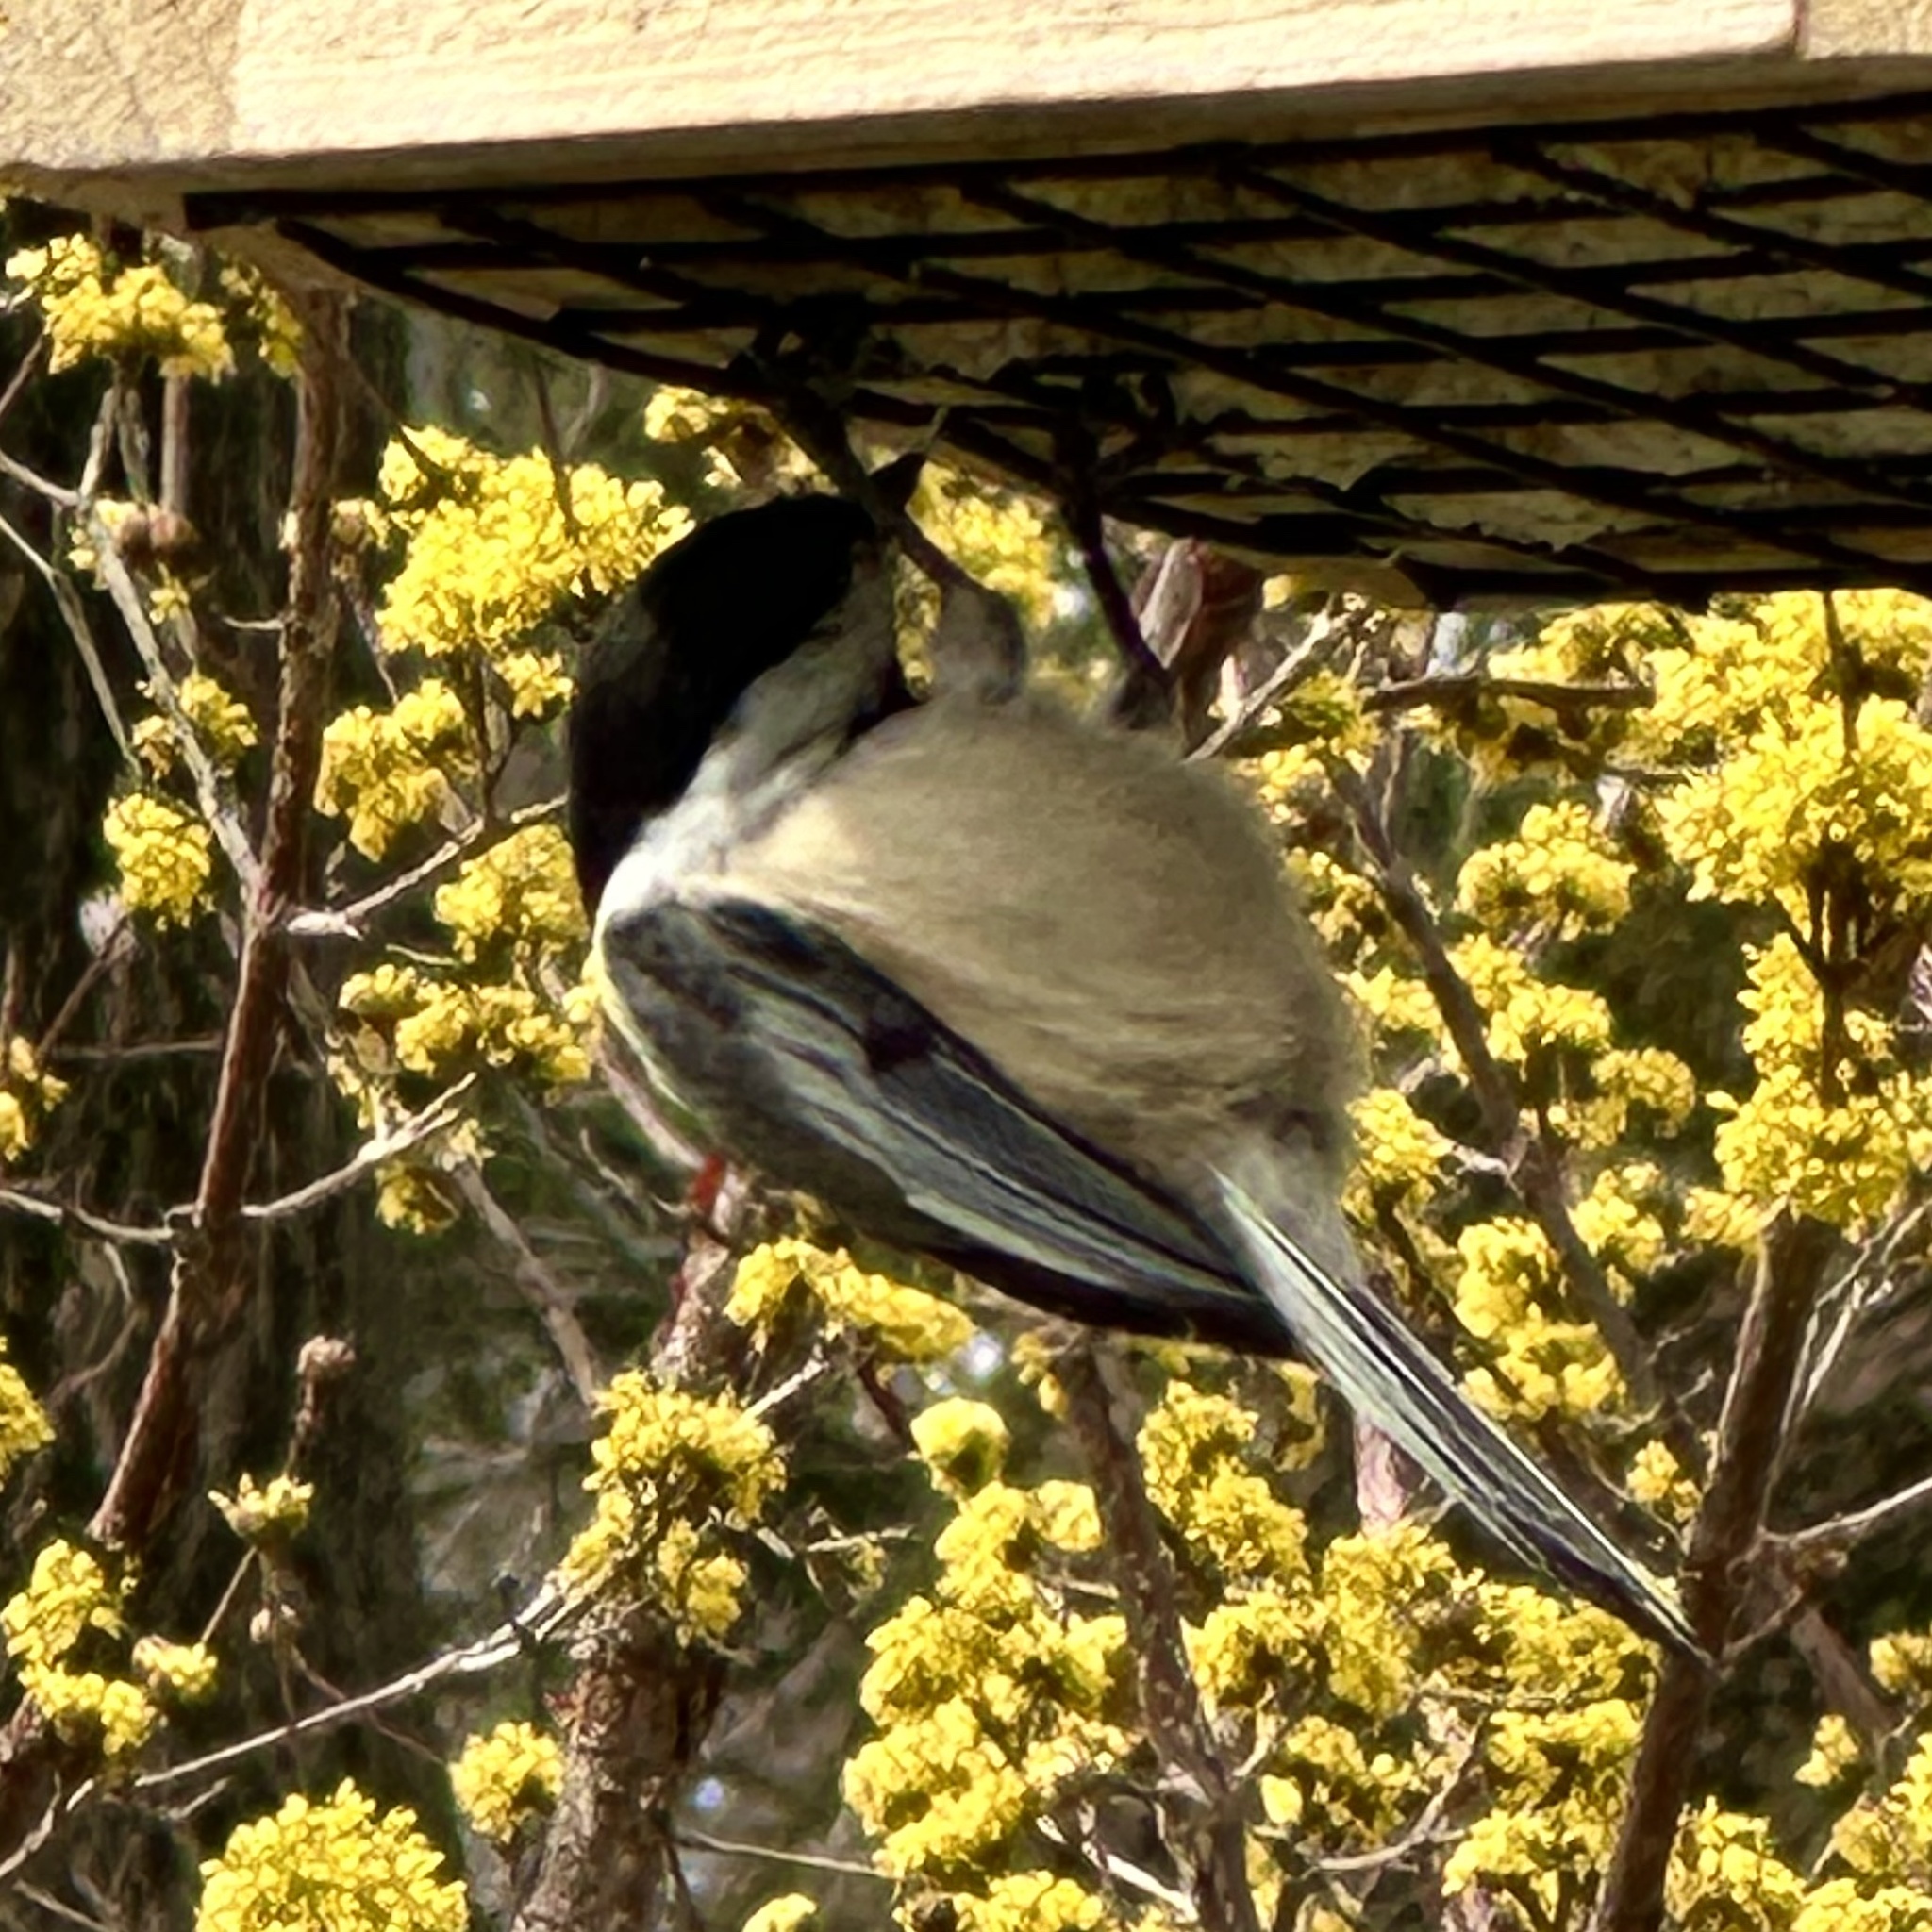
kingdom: Animalia
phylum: Chordata
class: Aves
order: Passeriformes
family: Paridae
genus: Poecile
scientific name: Poecile atricapillus
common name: Black-capped chickadee
